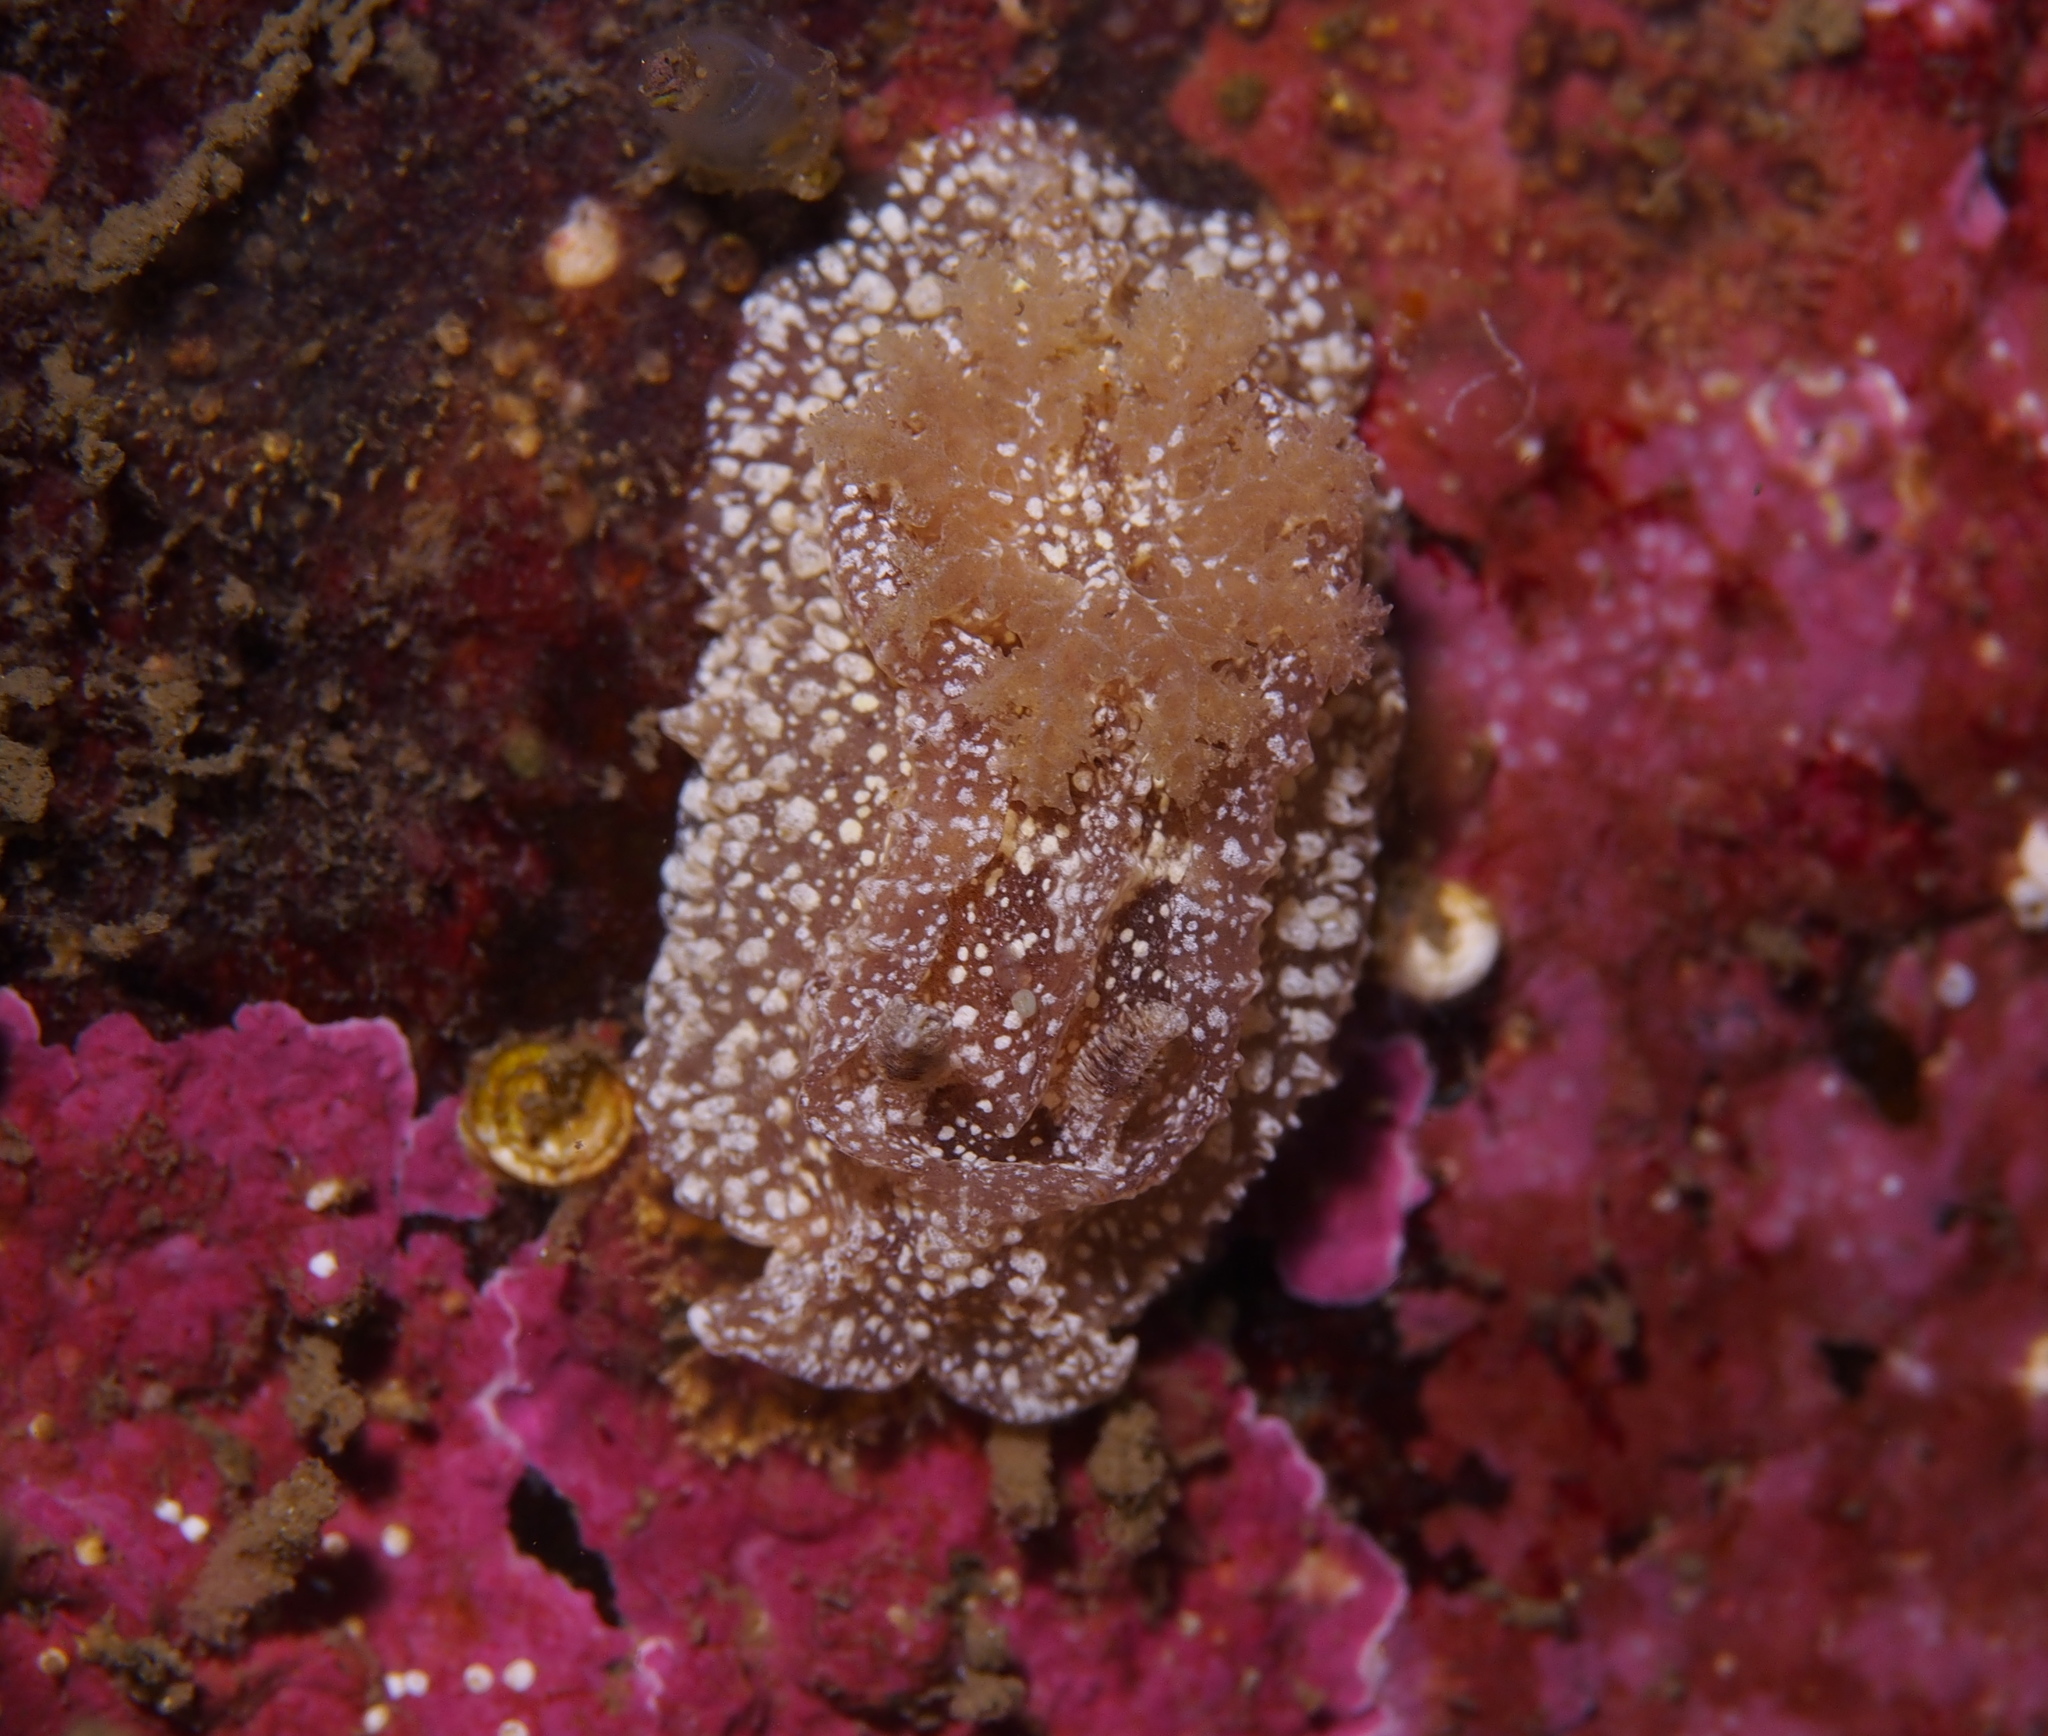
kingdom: Animalia
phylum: Mollusca
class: Gastropoda
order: Nudibranchia
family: Goniodorididae
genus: Pelagella
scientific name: Pelagella castanea
